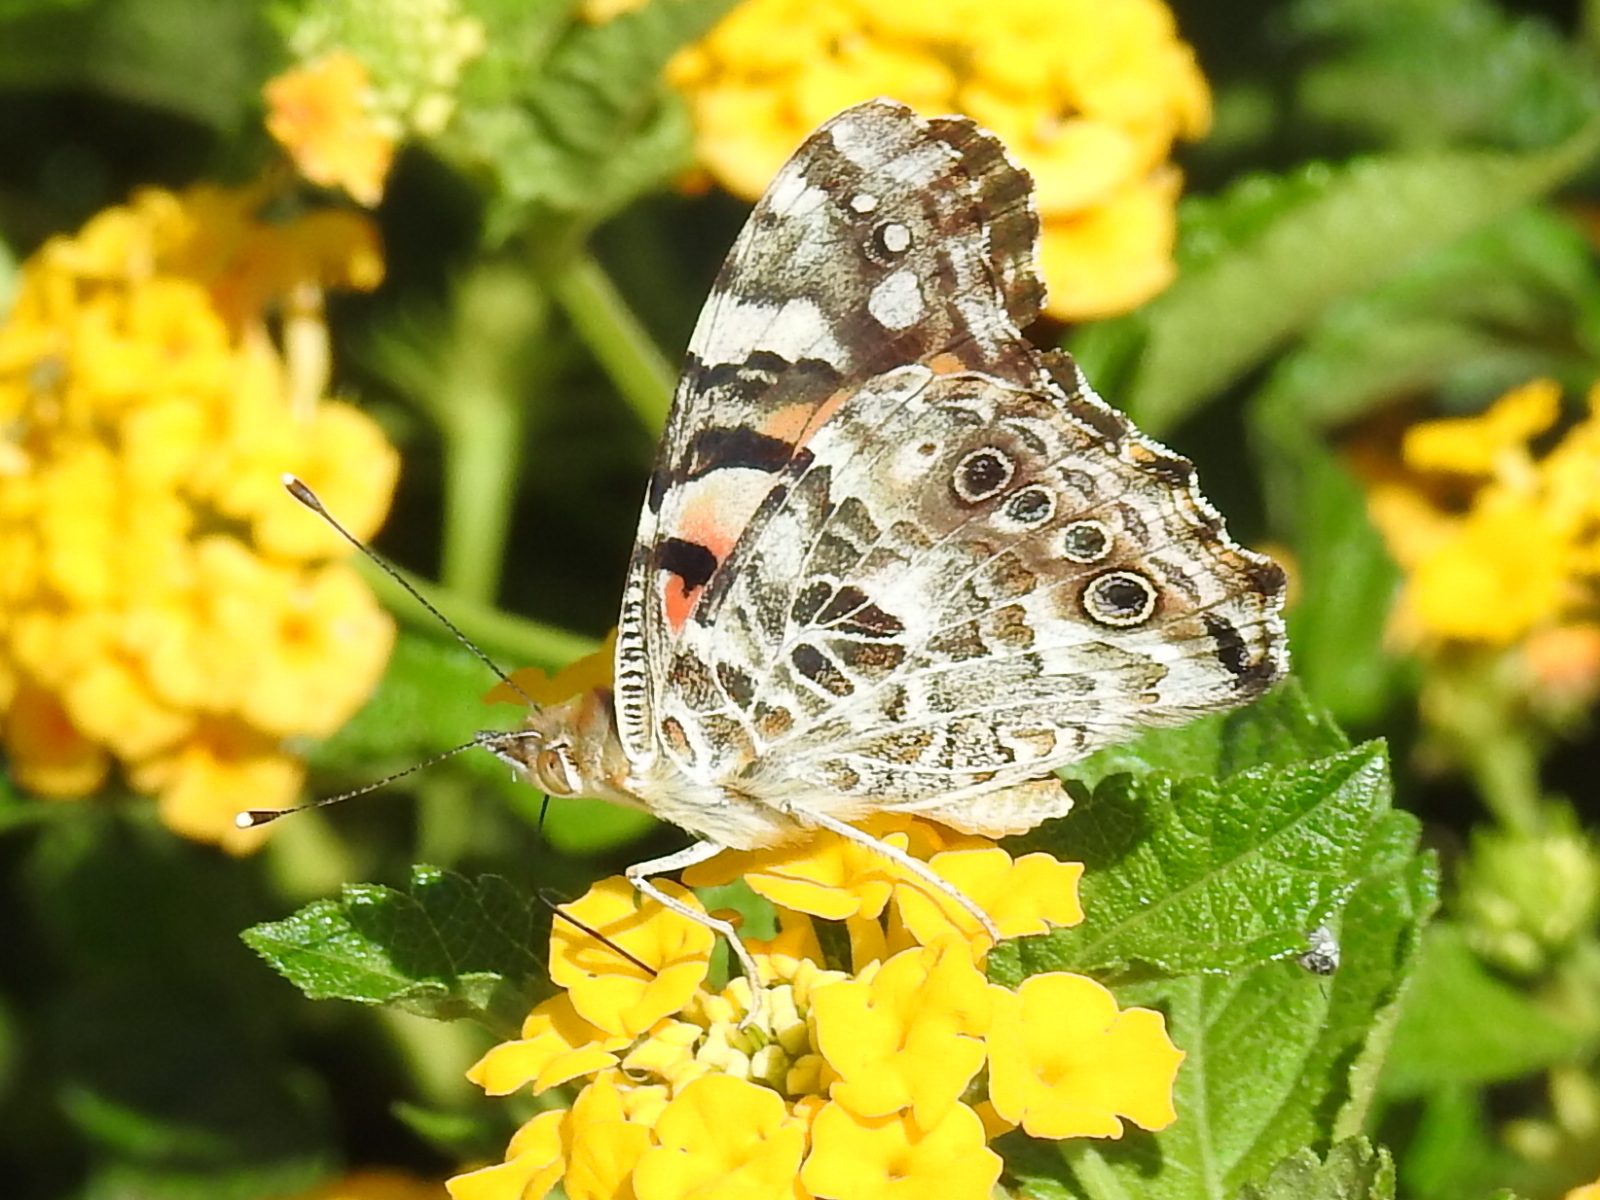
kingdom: Animalia
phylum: Arthropoda
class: Insecta
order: Lepidoptera
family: Nymphalidae
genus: Vanessa
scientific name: Vanessa cardui
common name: Painted lady
